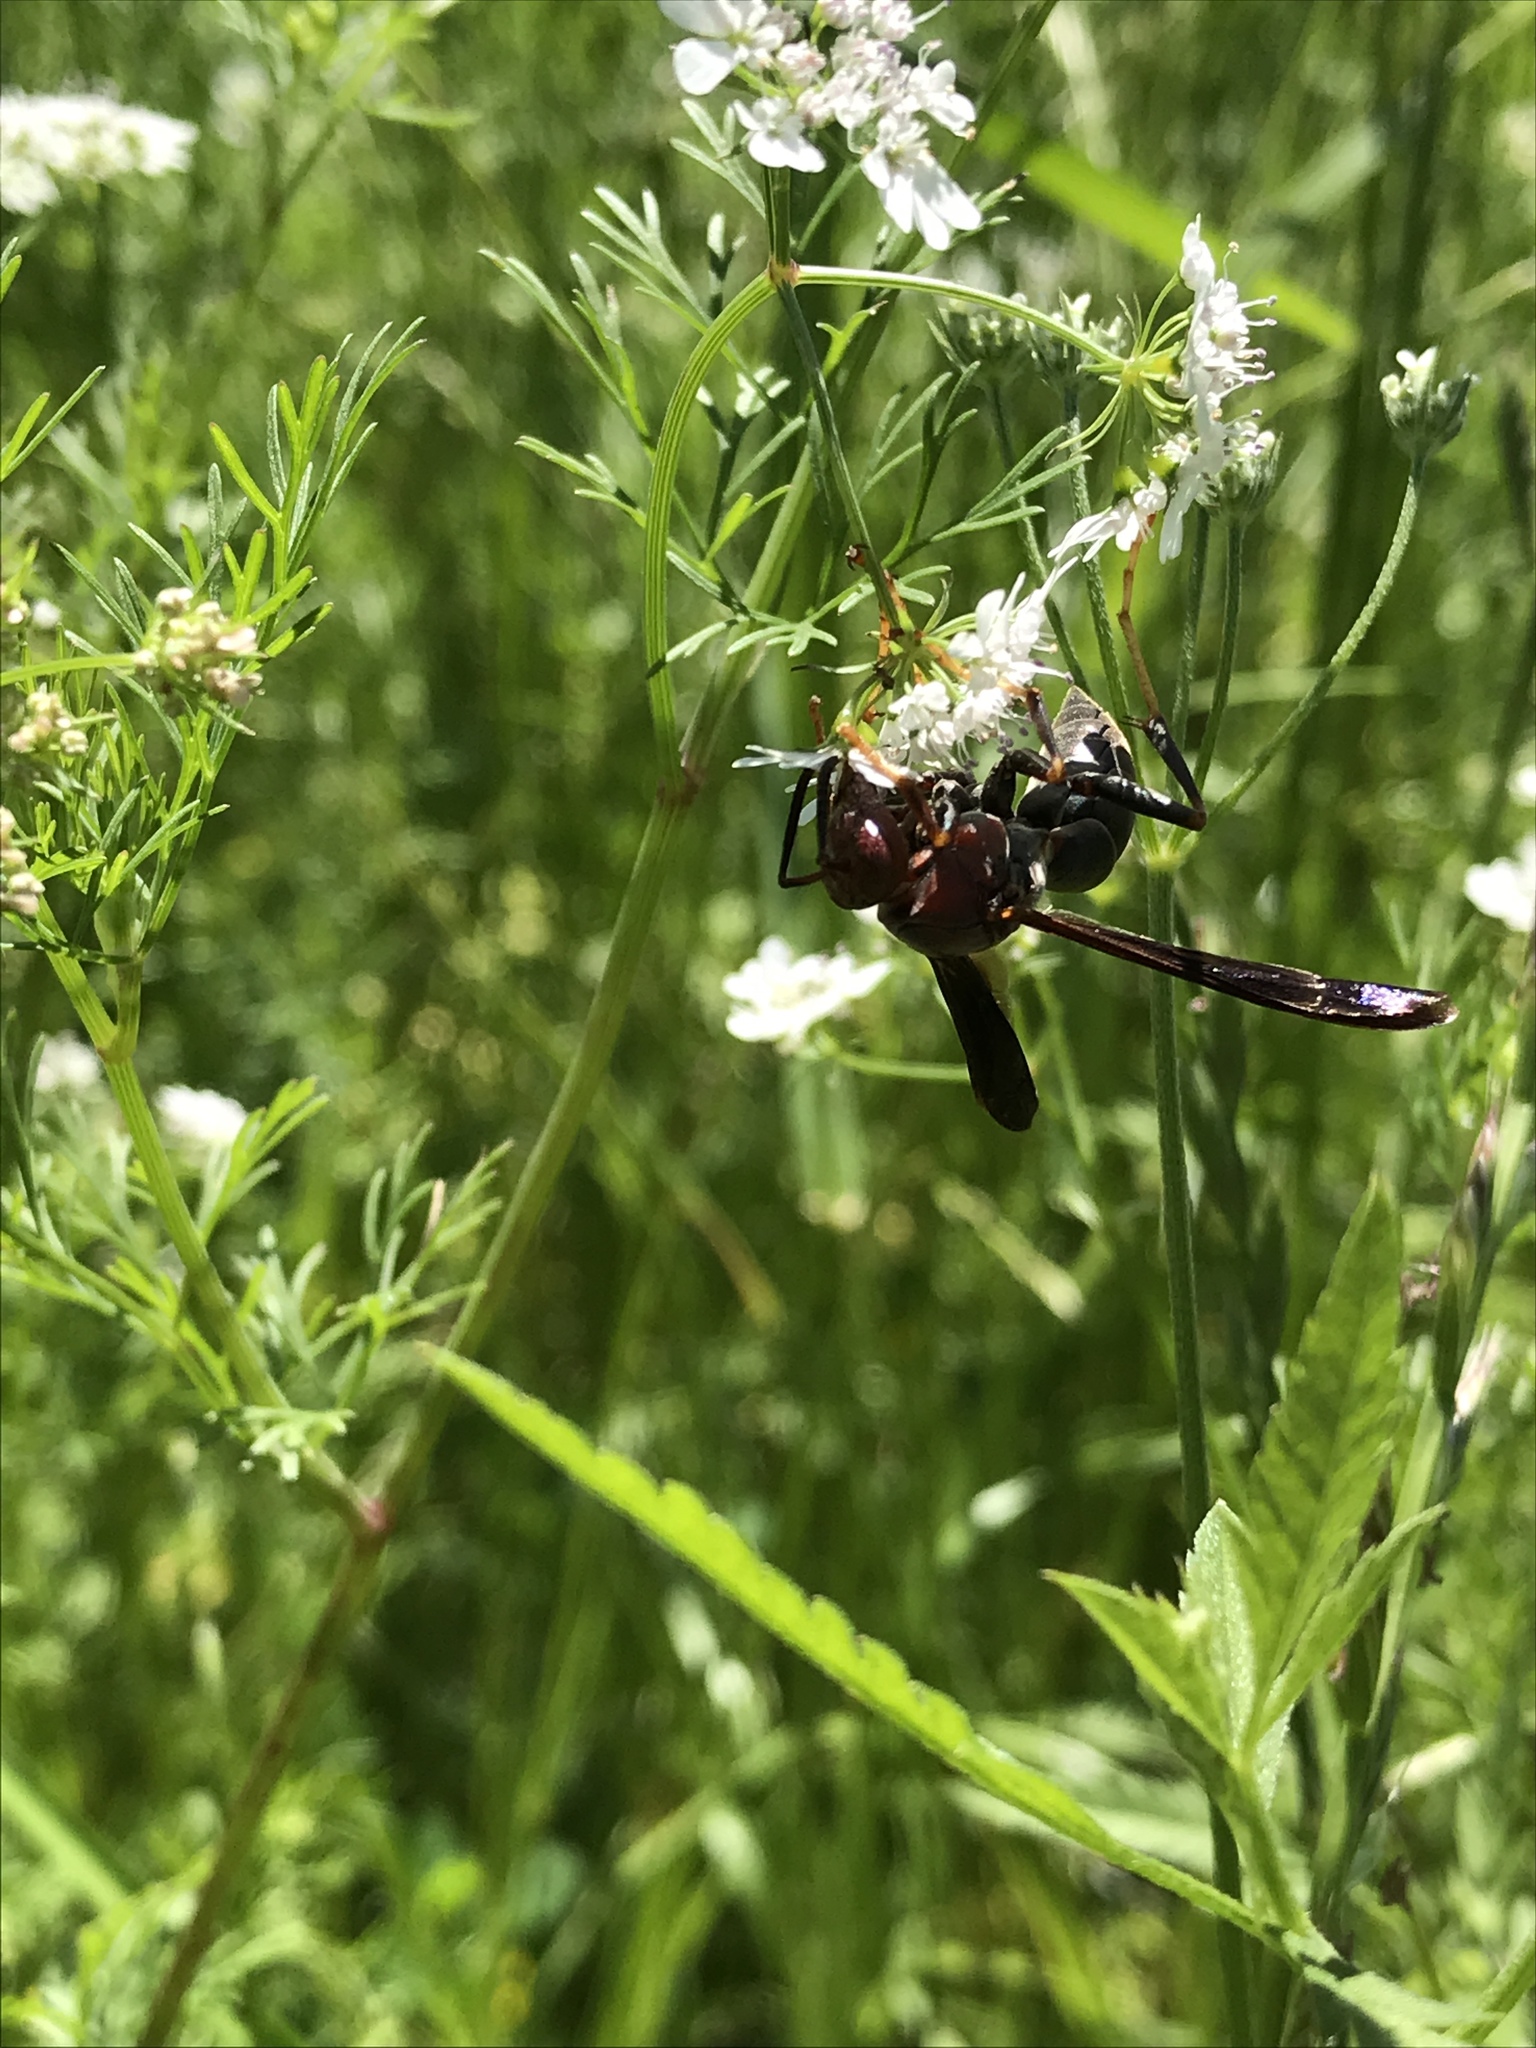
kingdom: Animalia
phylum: Arthropoda
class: Insecta
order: Hymenoptera
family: Eumenidae
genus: Polistes
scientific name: Polistes metricus
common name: Metric paper wasp
